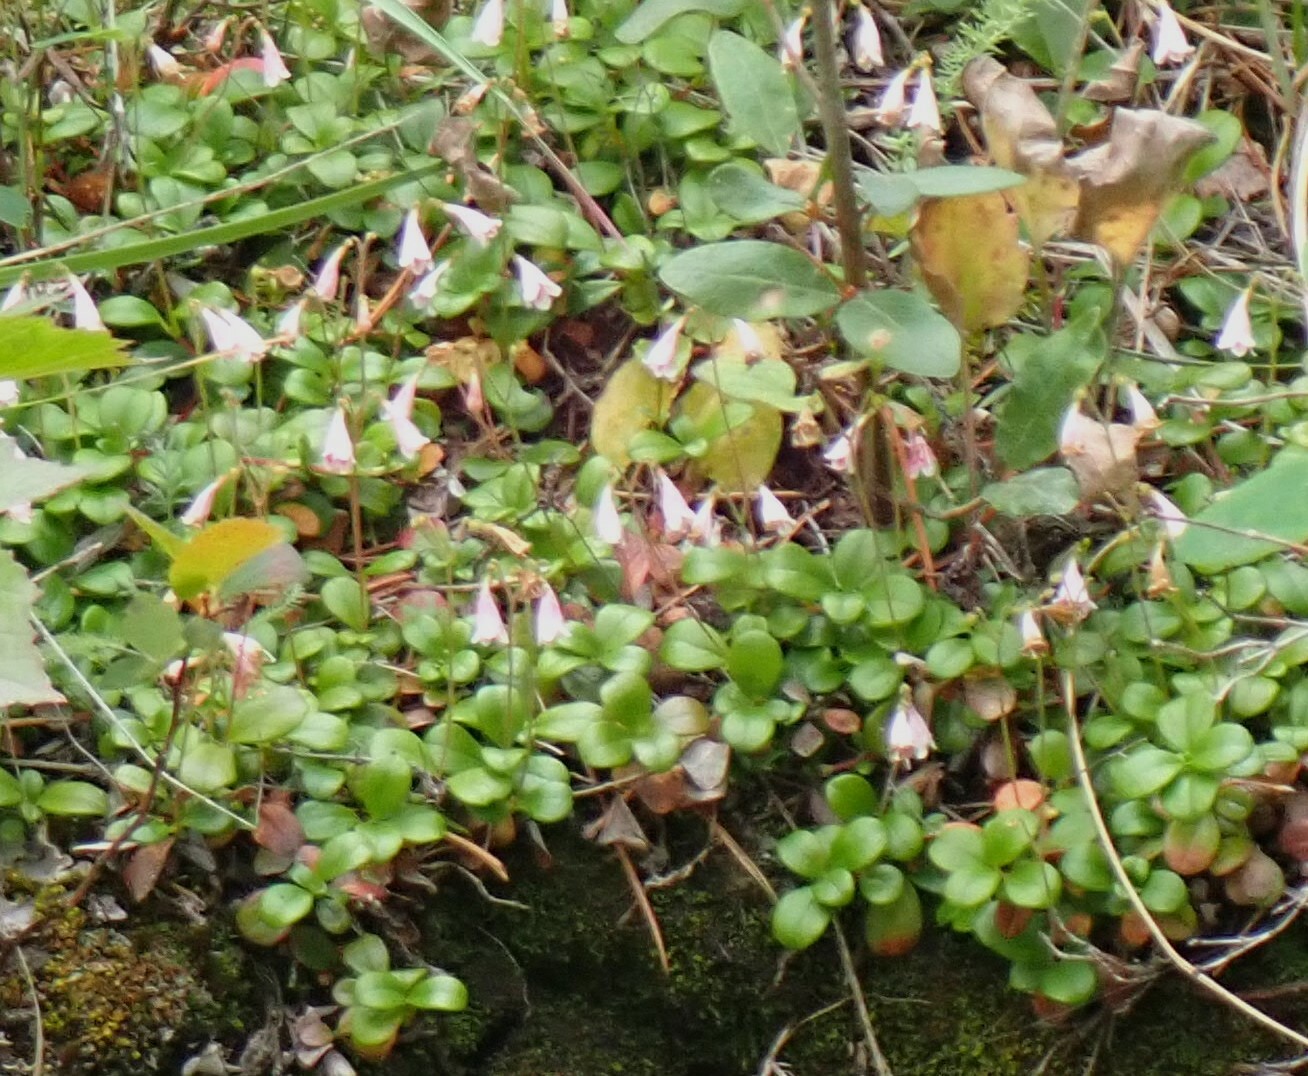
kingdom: Plantae
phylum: Tracheophyta
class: Magnoliopsida
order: Dipsacales
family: Caprifoliaceae
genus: Linnaea
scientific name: Linnaea borealis
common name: Twinflower
